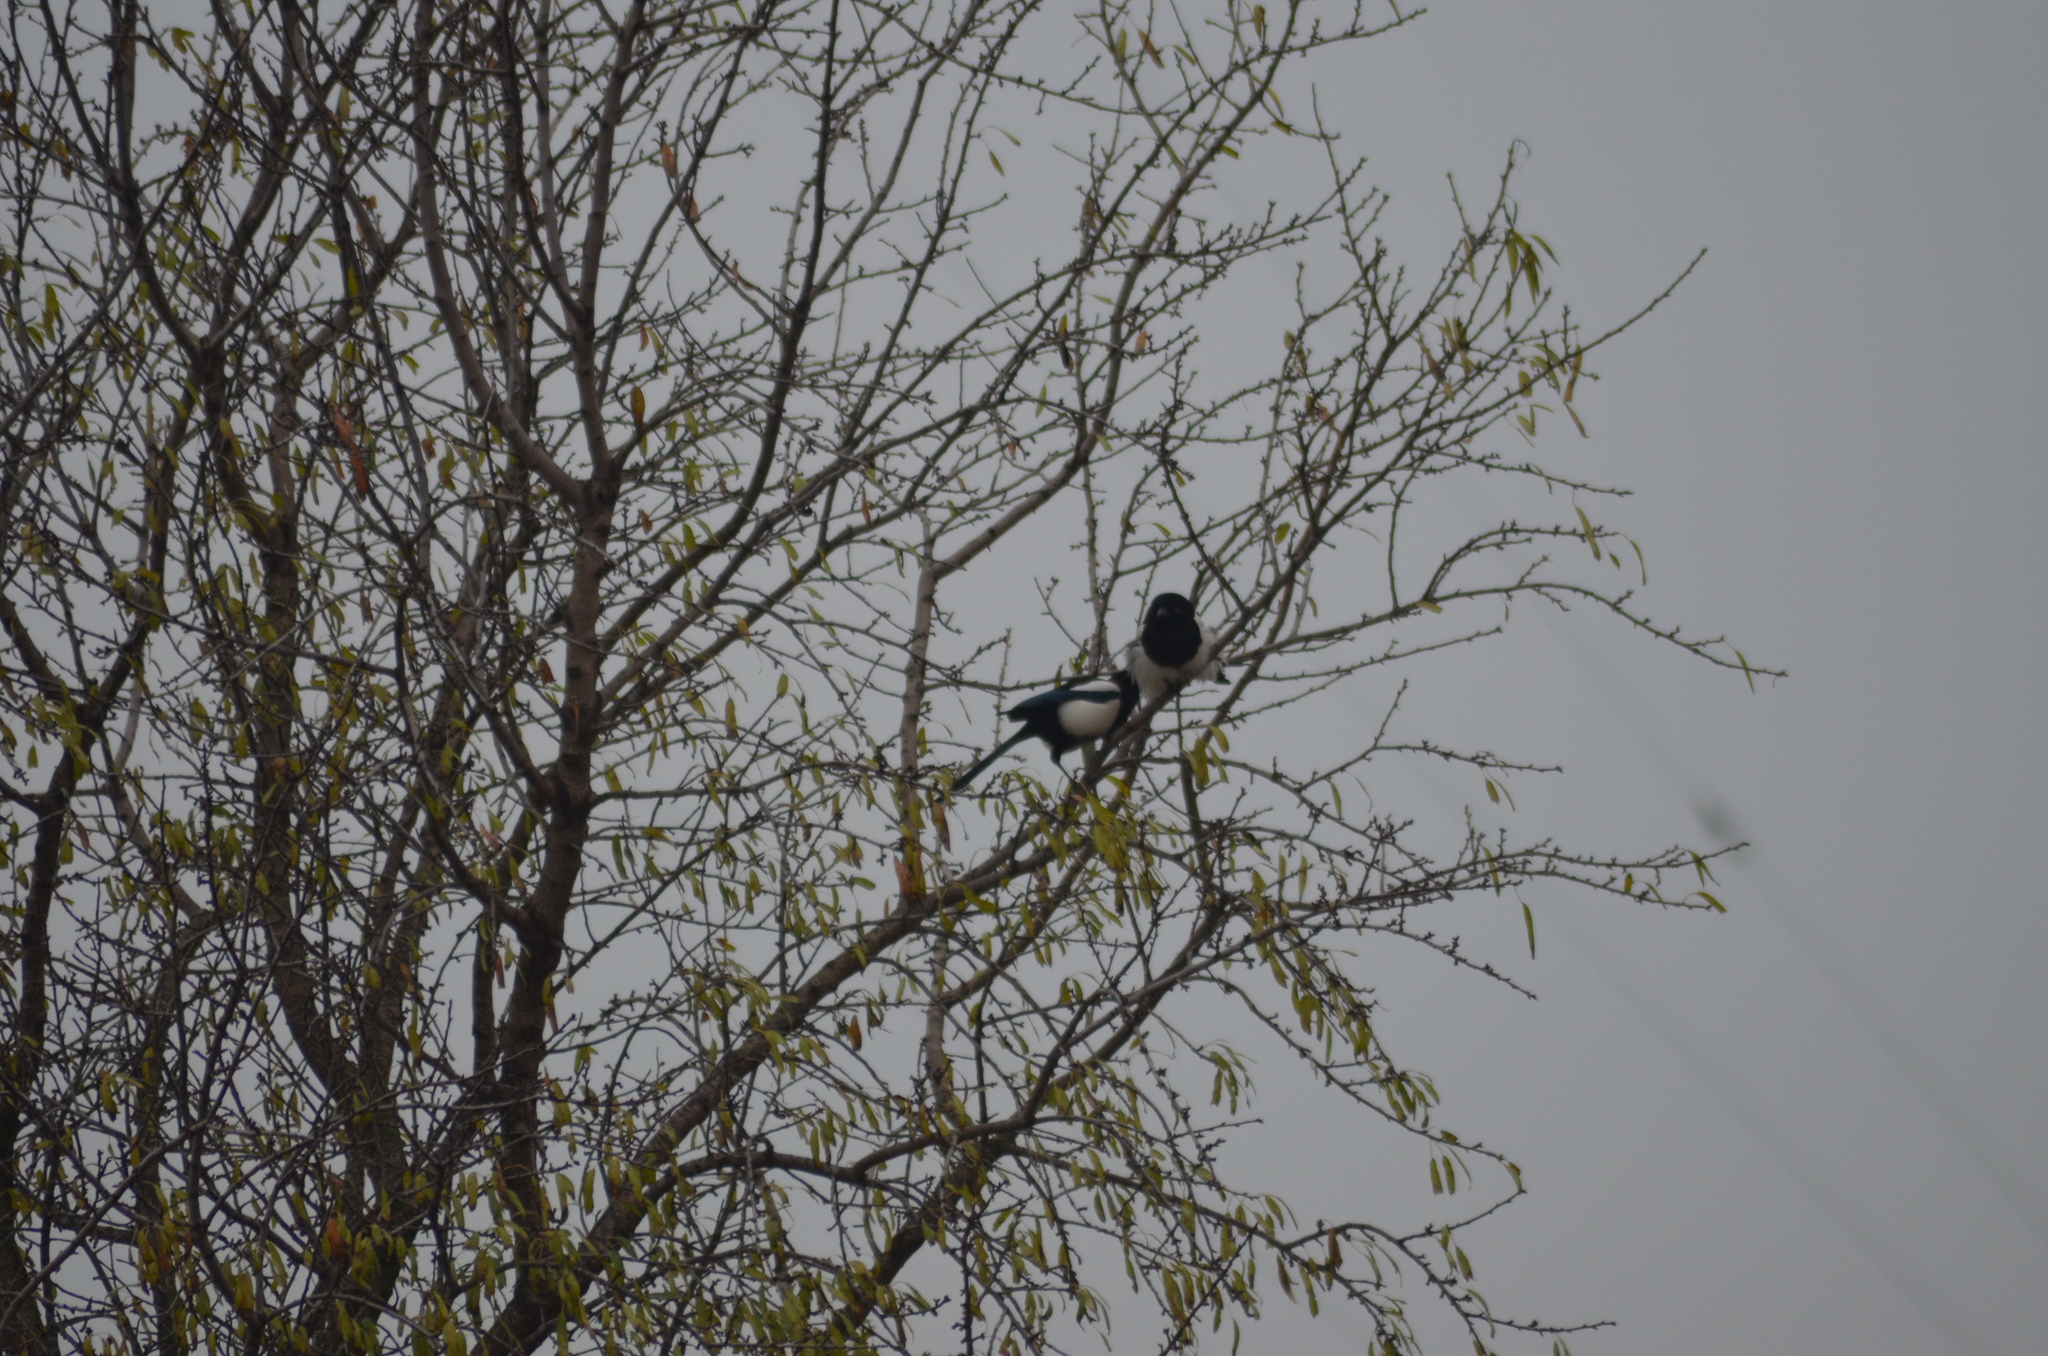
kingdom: Animalia
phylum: Chordata
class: Aves
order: Passeriformes
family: Corvidae
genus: Pica
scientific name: Pica pica
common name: Eurasian magpie
